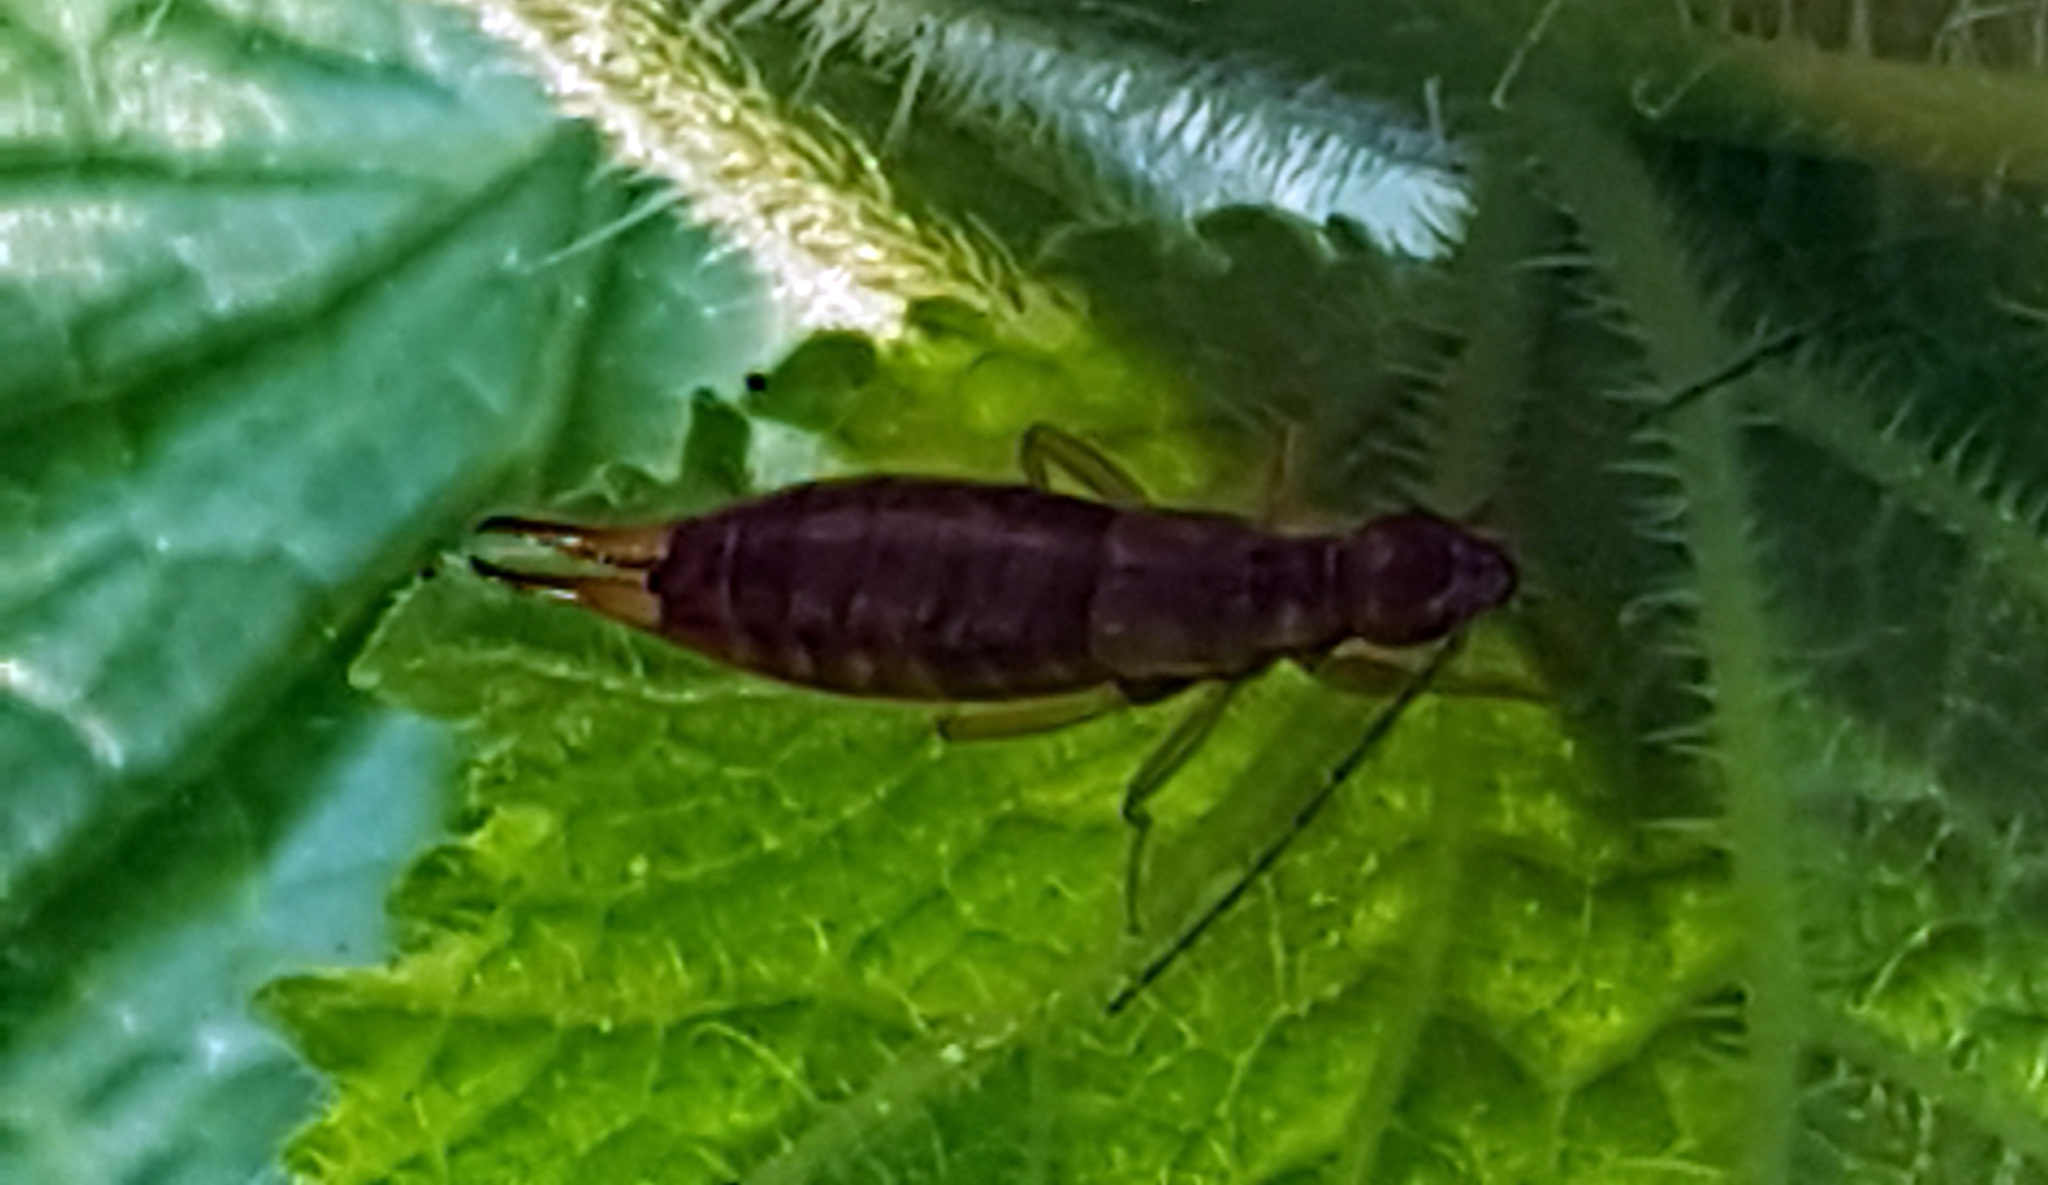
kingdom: Animalia
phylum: Arthropoda
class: Insecta
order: Dermaptera
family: Forficulidae
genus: Apterygida
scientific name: Apterygida albipennis
